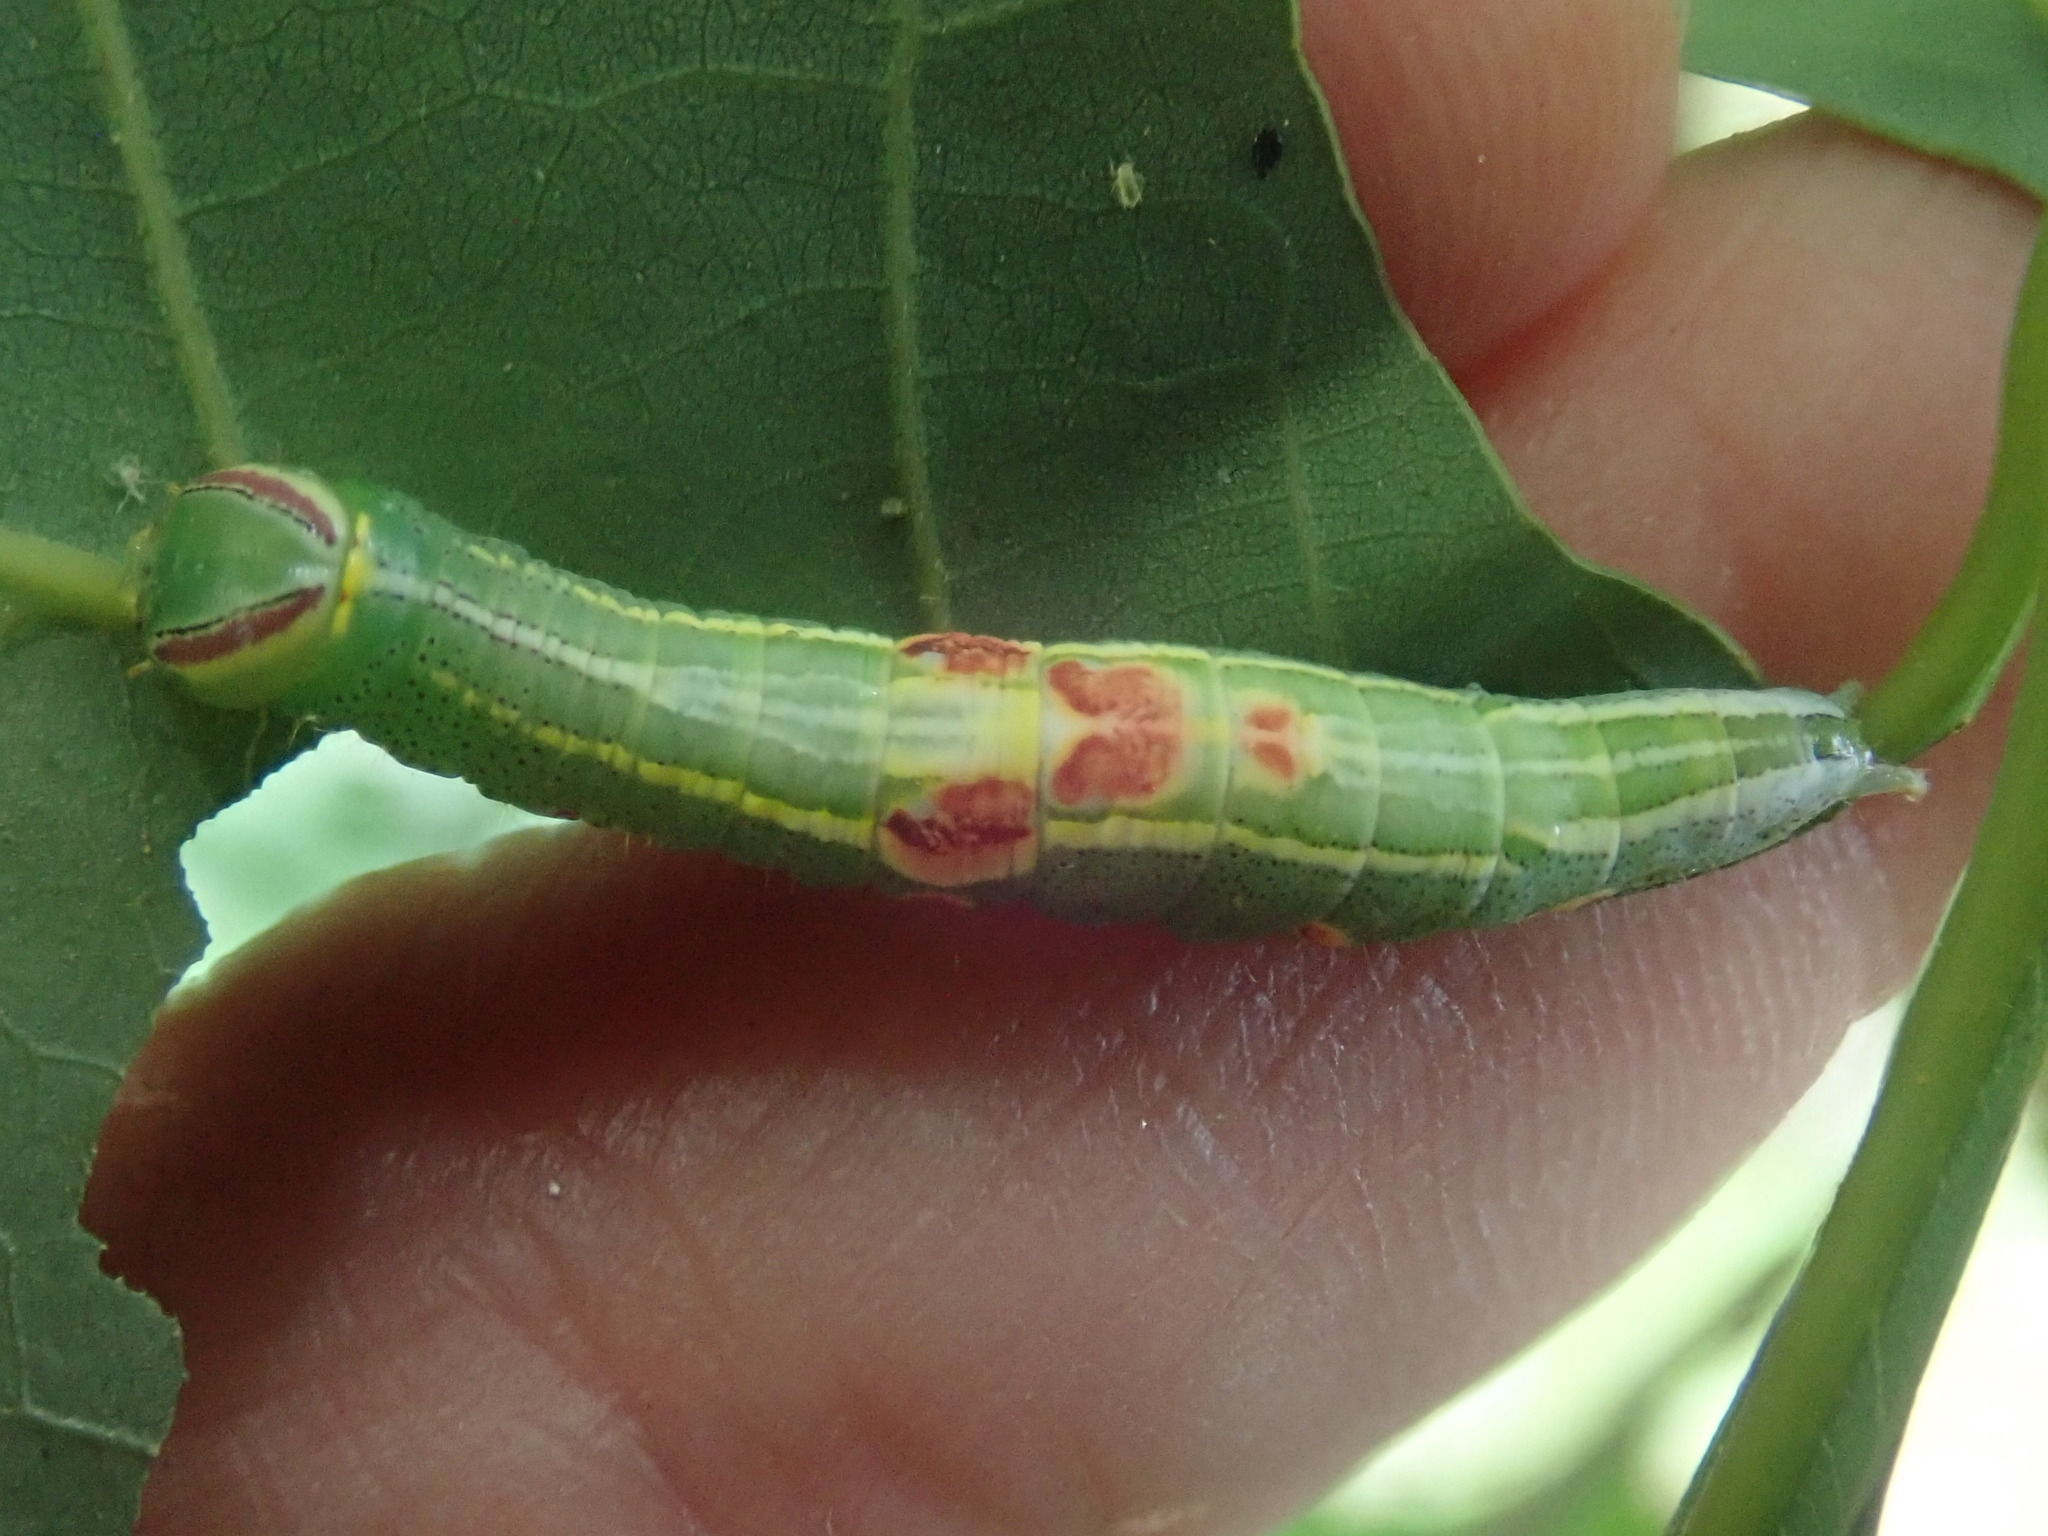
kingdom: Animalia
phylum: Arthropoda
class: Insecta
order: Lepidoptera
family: Notodontidae
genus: Disphragis
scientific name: Disphragis Cecrita guttivitta
